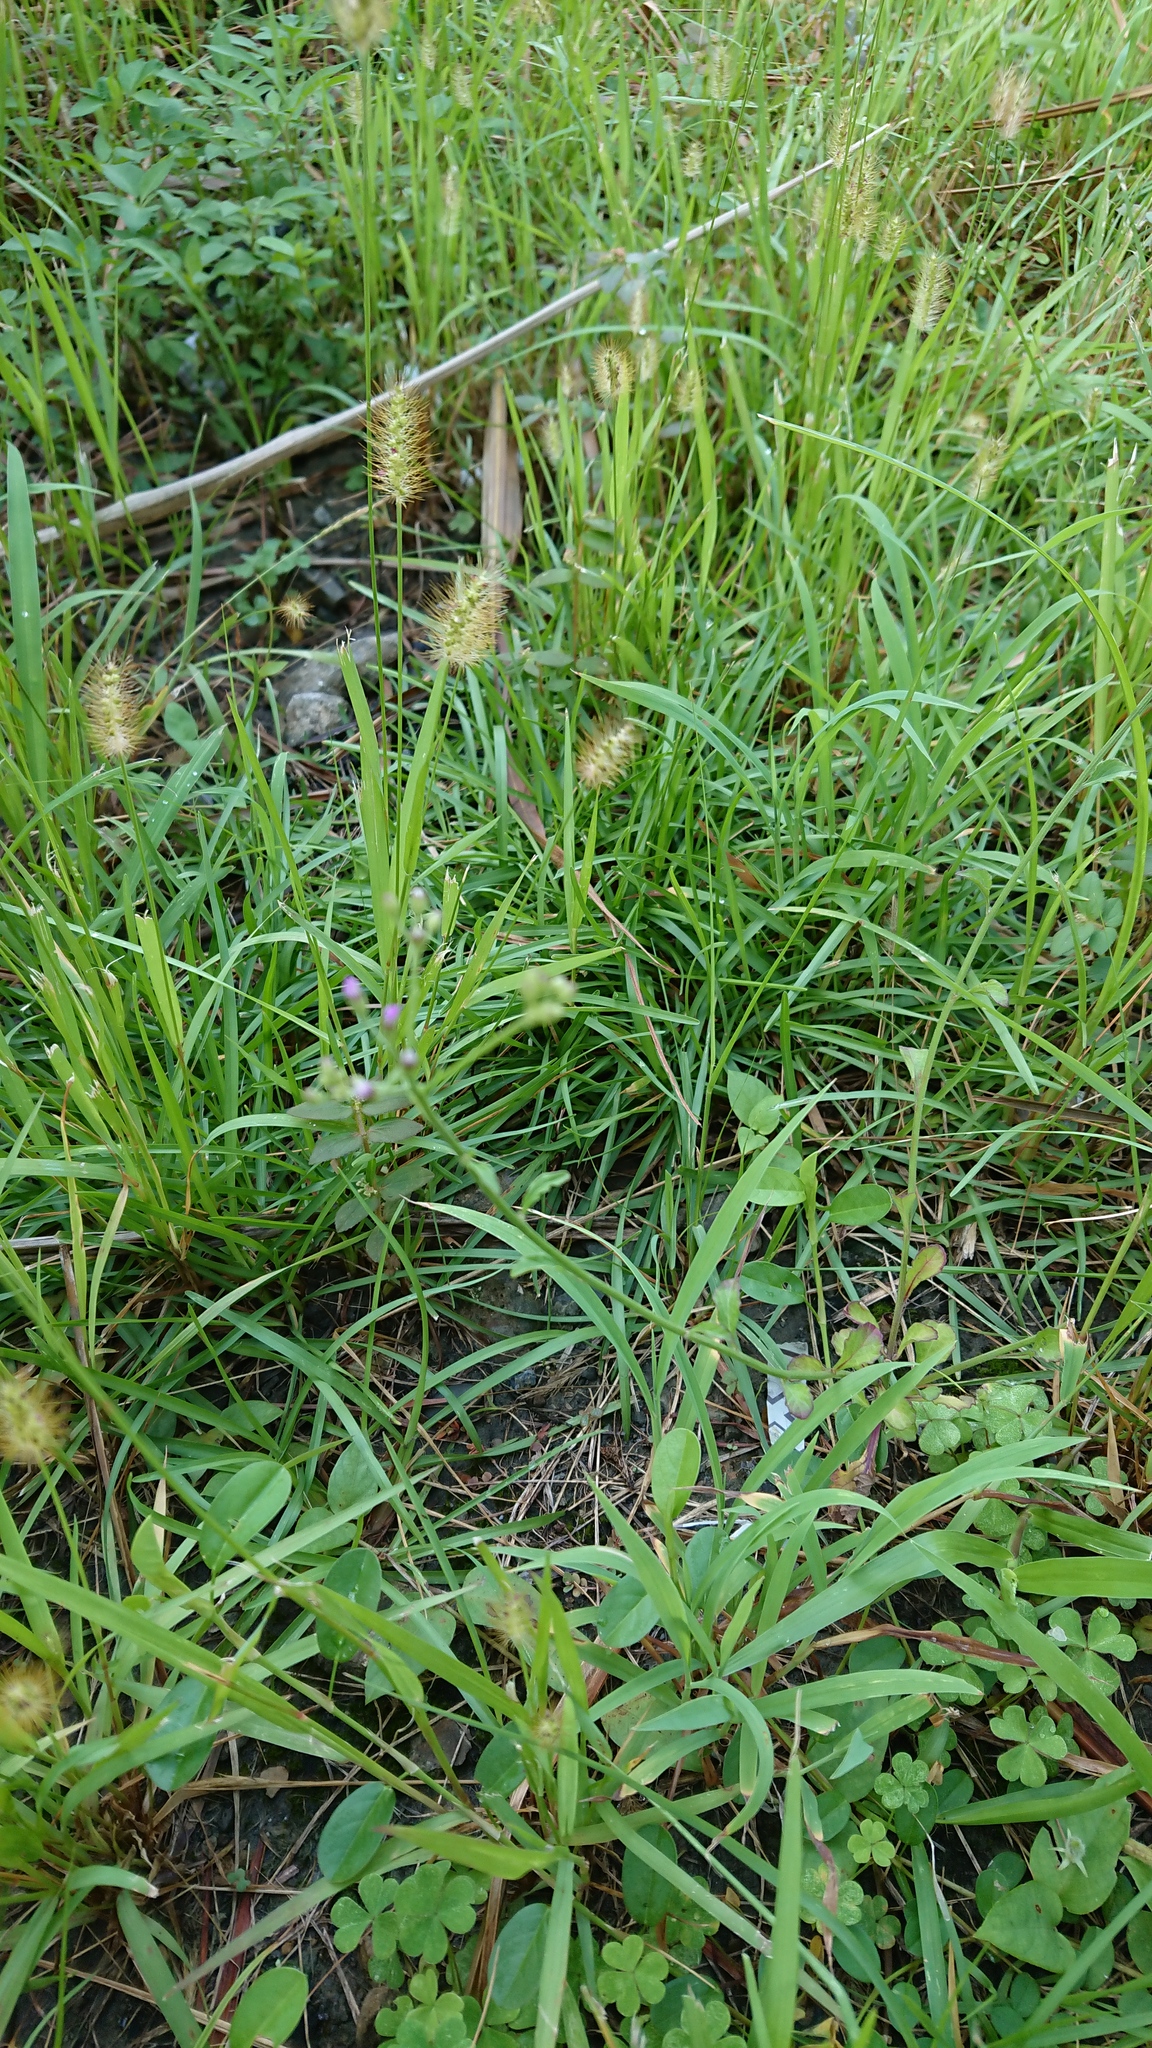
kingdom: Plantae
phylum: Tracheophyta
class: Liliopsida
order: Poales
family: Poaceae
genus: Setaria
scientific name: Setaria parviflora
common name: Knotroot bristle-grass
